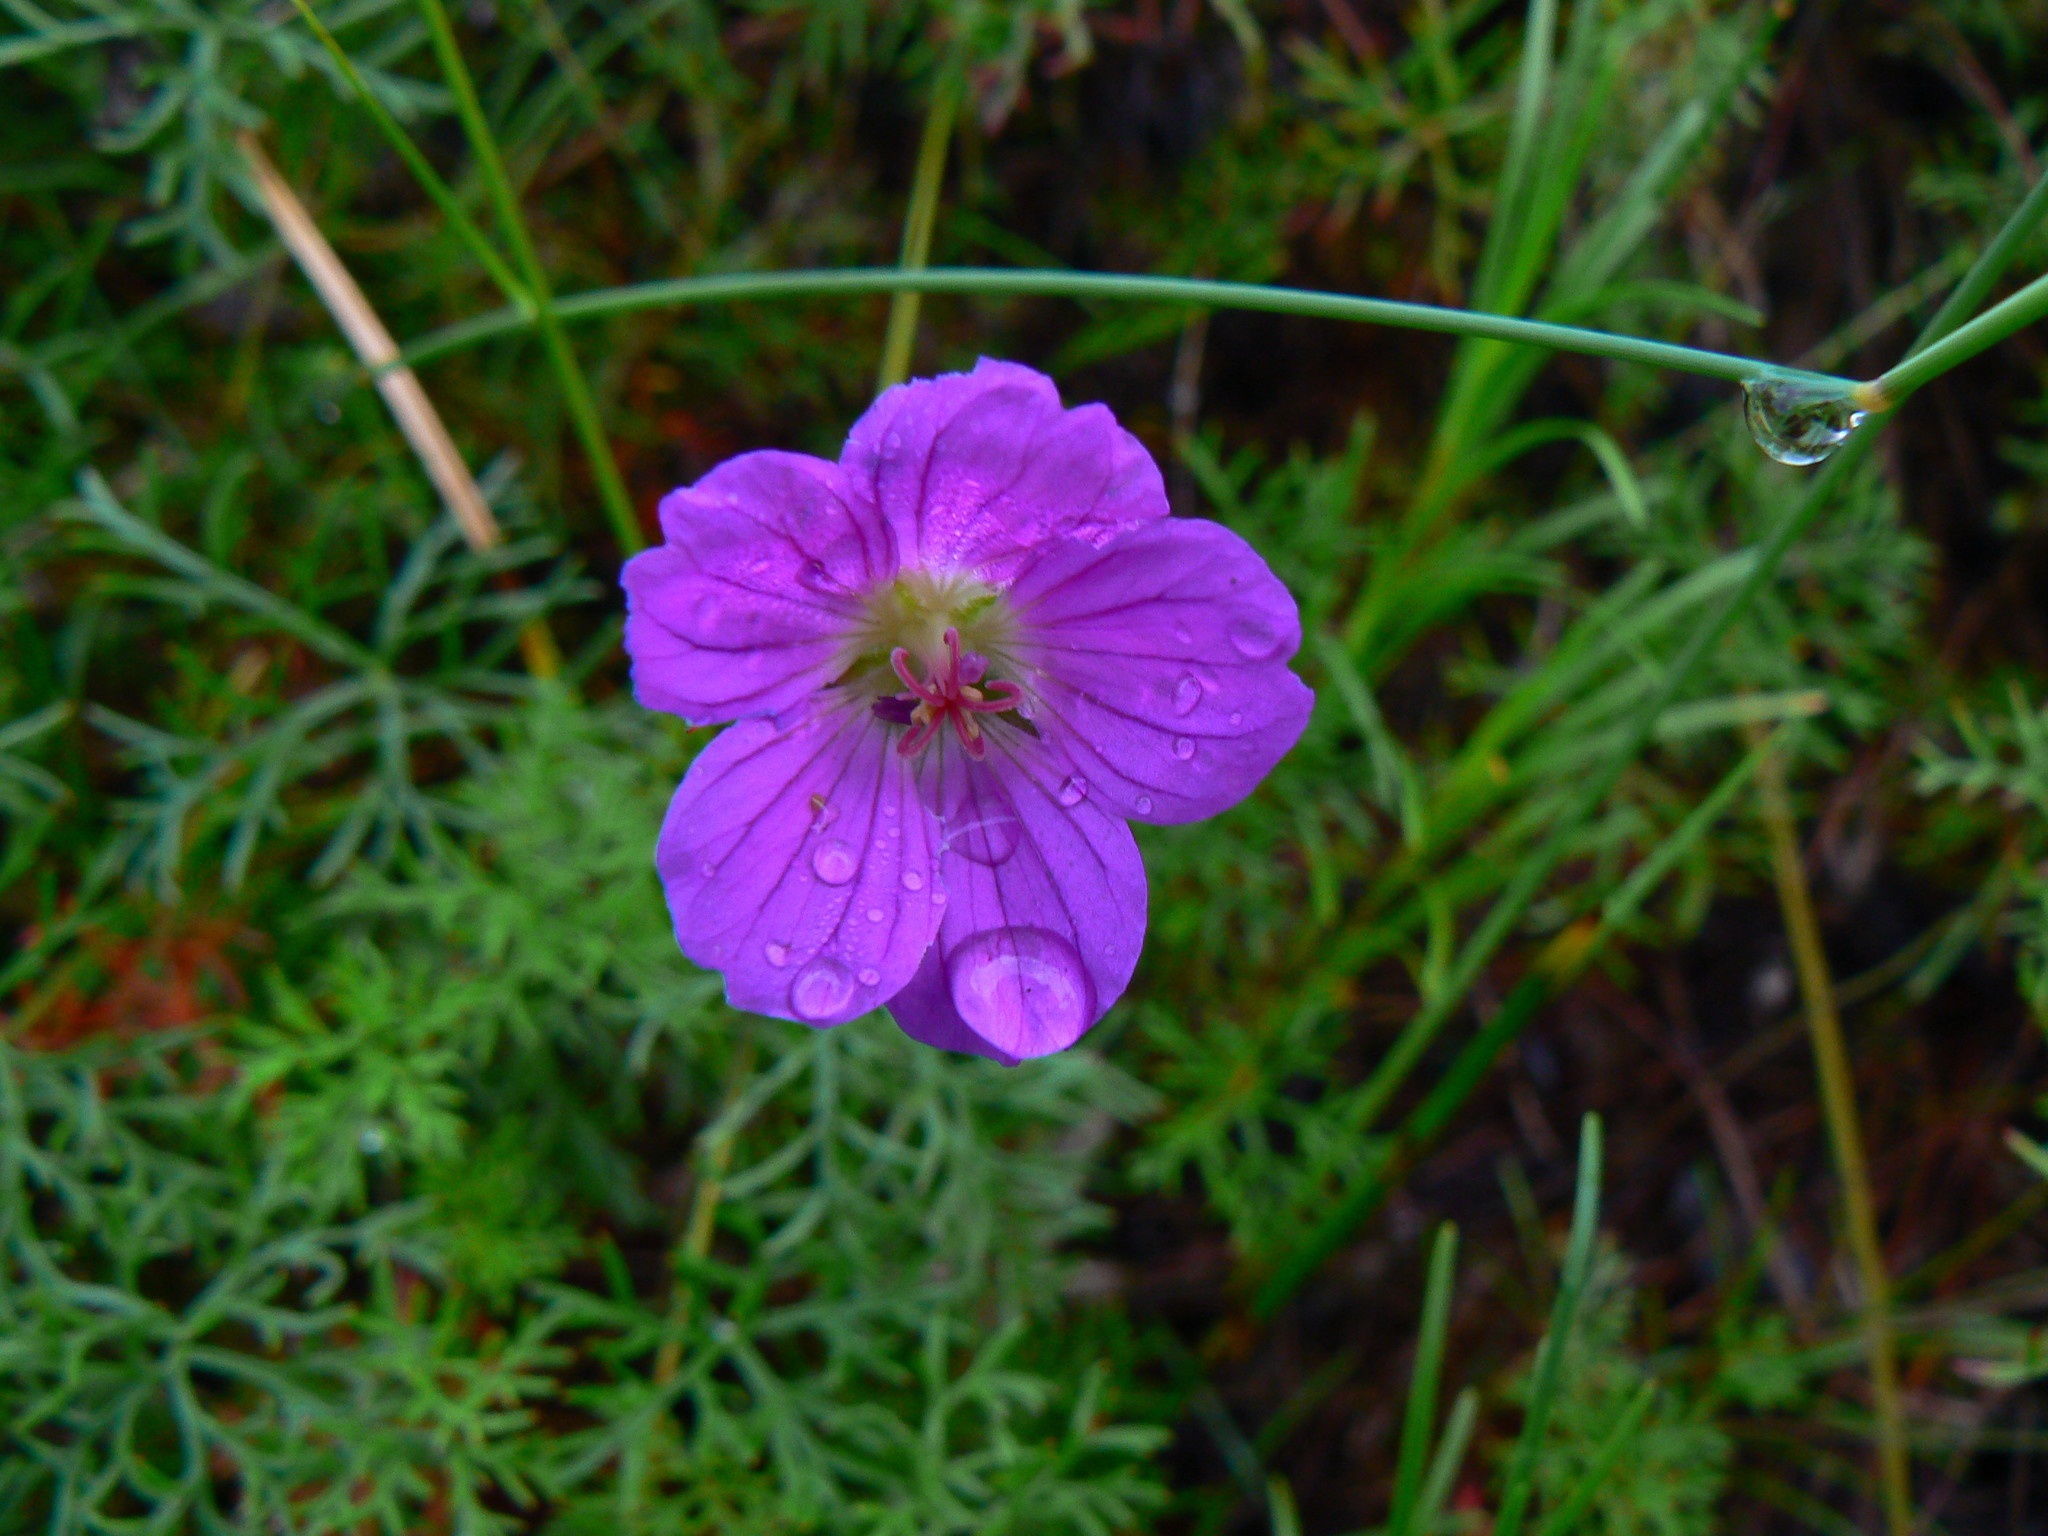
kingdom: Plantae
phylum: Tracheophyta
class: Magnoliopsida
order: Geraniales
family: Geraniaceae
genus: Geranium
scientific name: Geranium incanum
